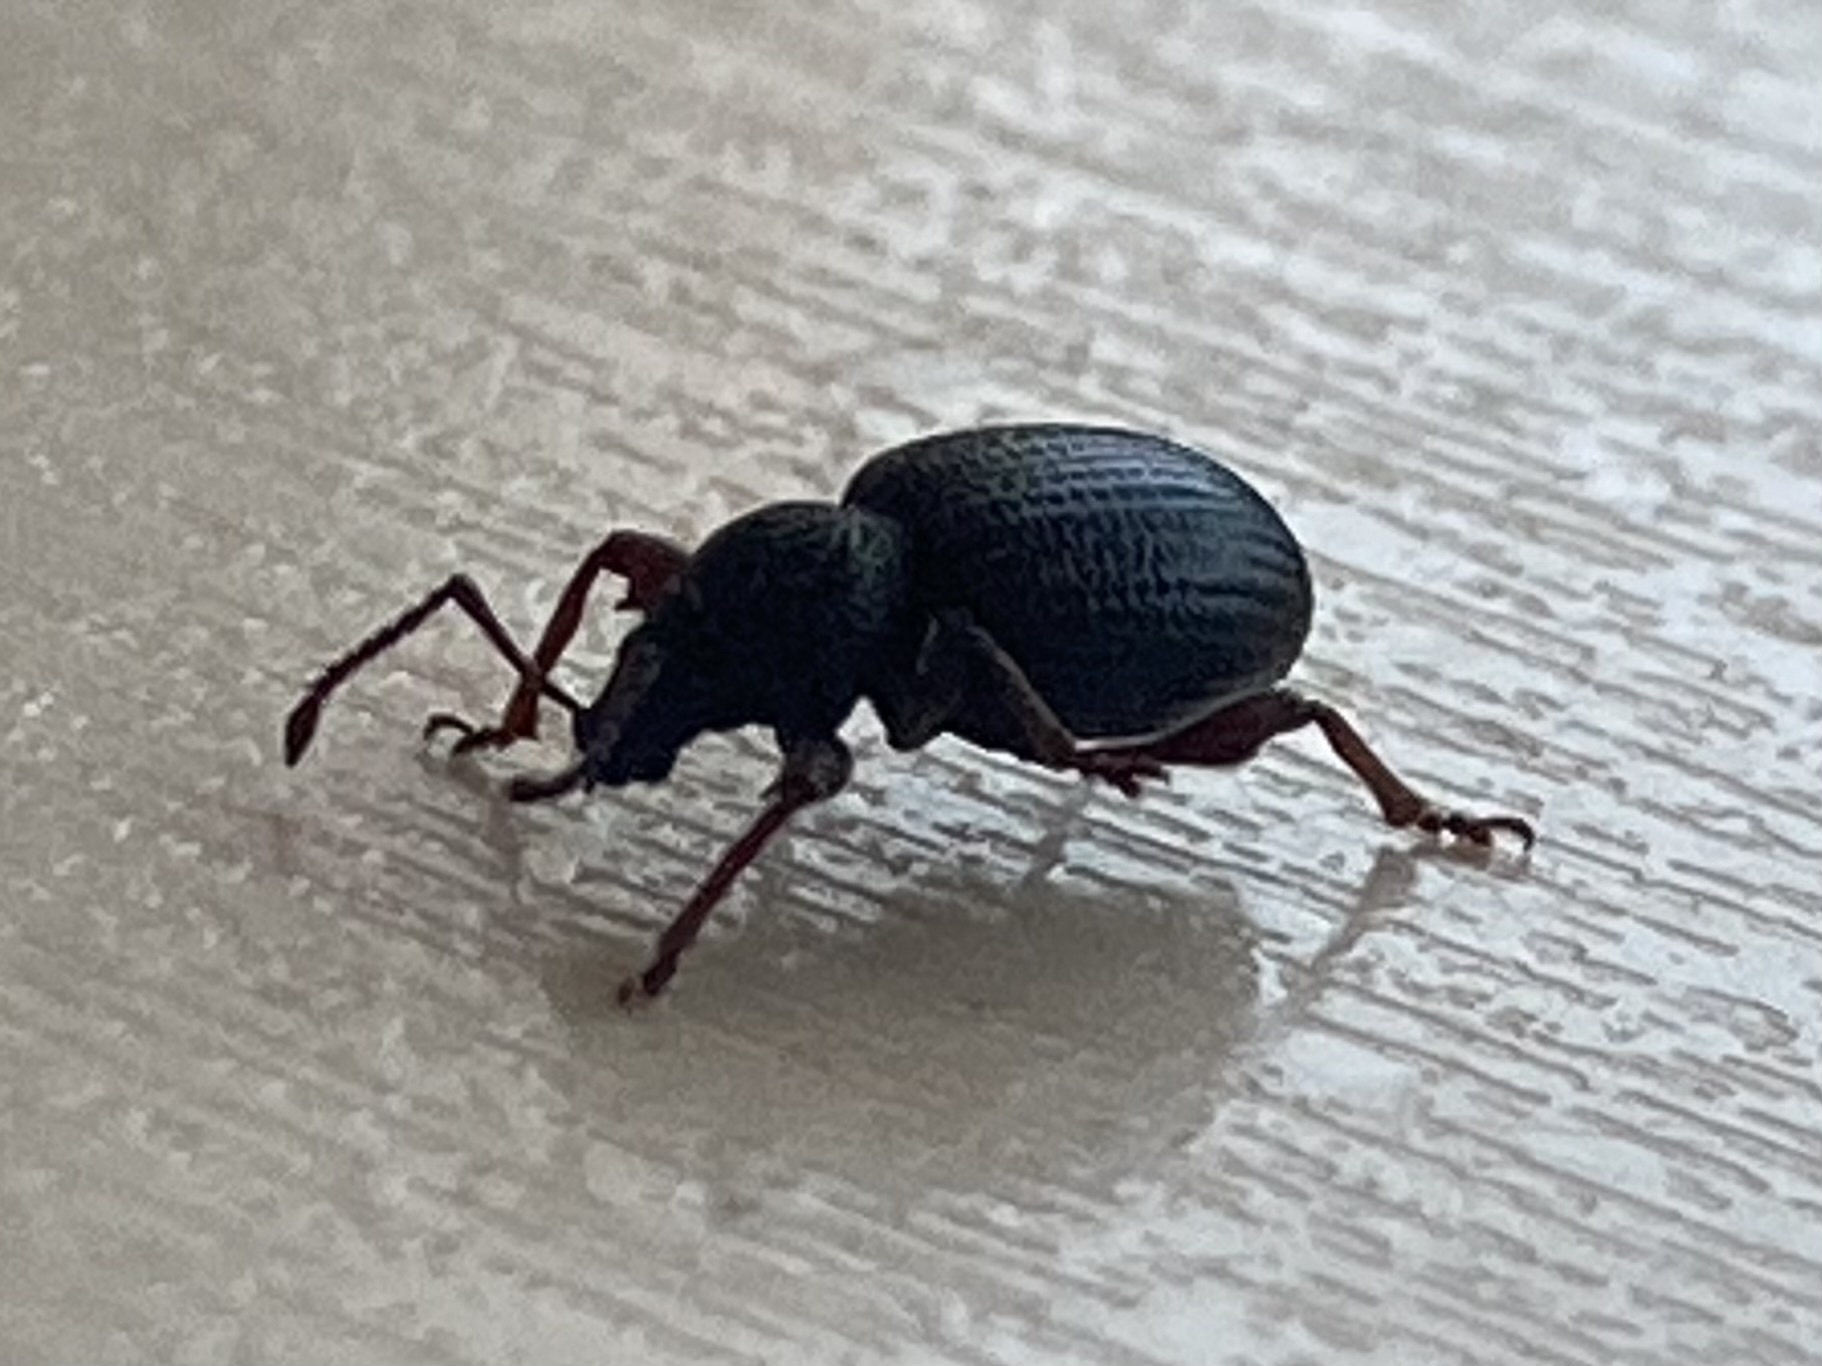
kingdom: Animalia
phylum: Arthropoda
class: Insecta
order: Coleoptera
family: Curculionidae
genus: Otiorhynchus
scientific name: Otiorhynchus ovatus
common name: Strawberry root weevil
